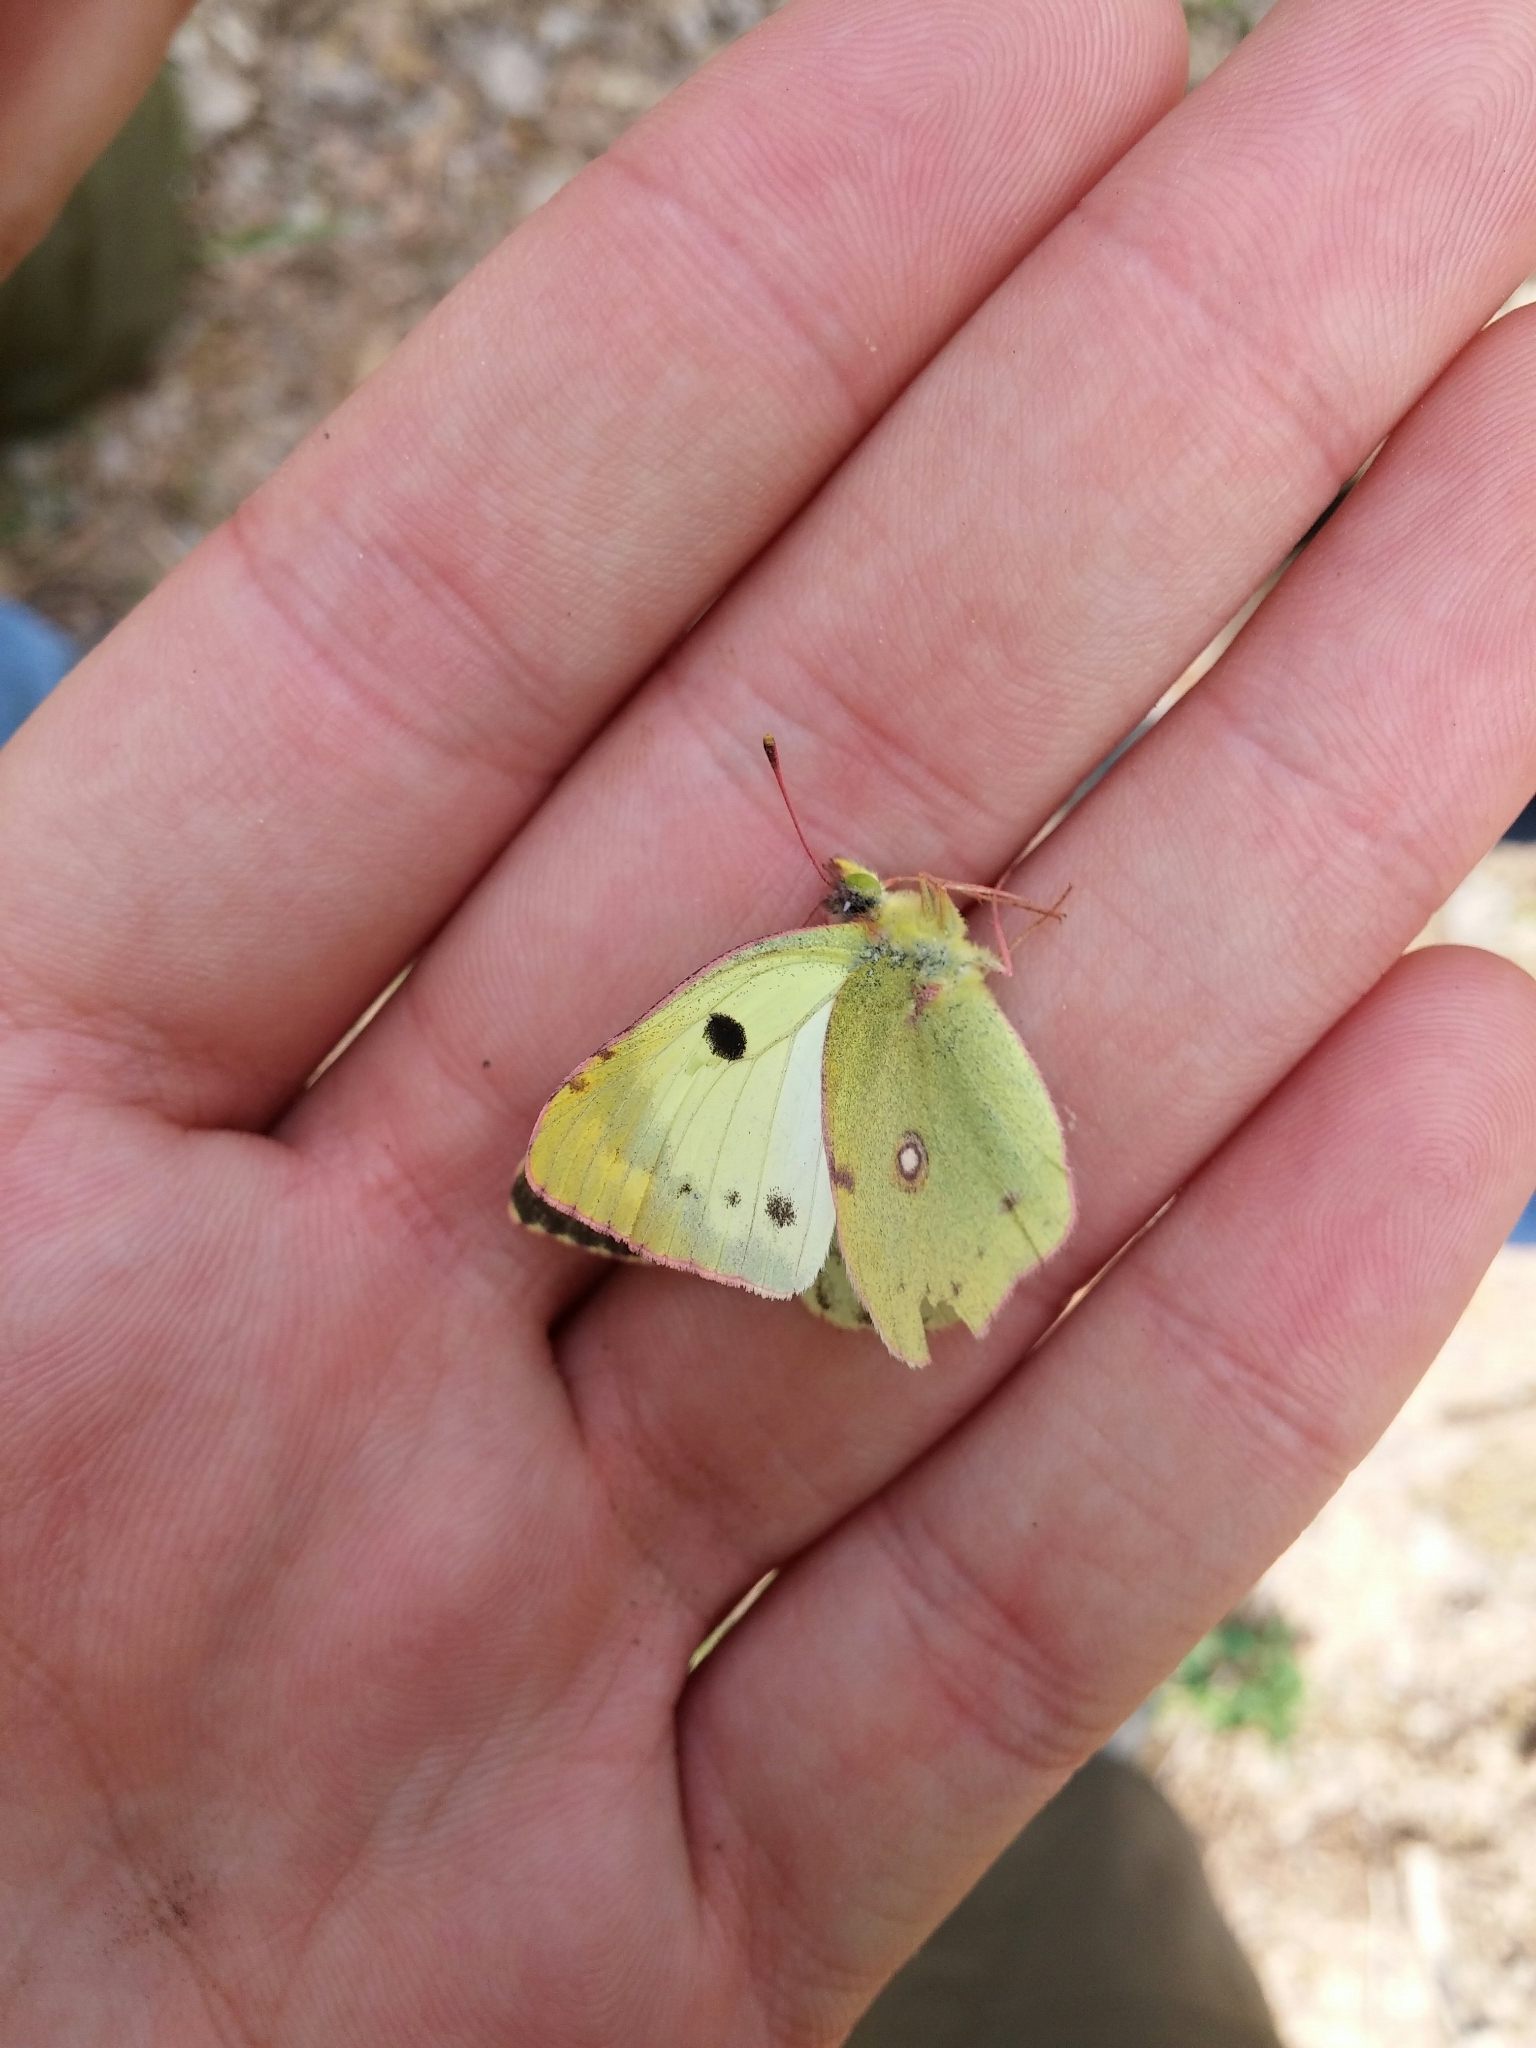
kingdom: Animalia
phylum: Arthropoda
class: Insecta
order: Lepidoptera
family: Pieridae
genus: Colias
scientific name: Colias alfacariensis
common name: Berger's clouded yellow
